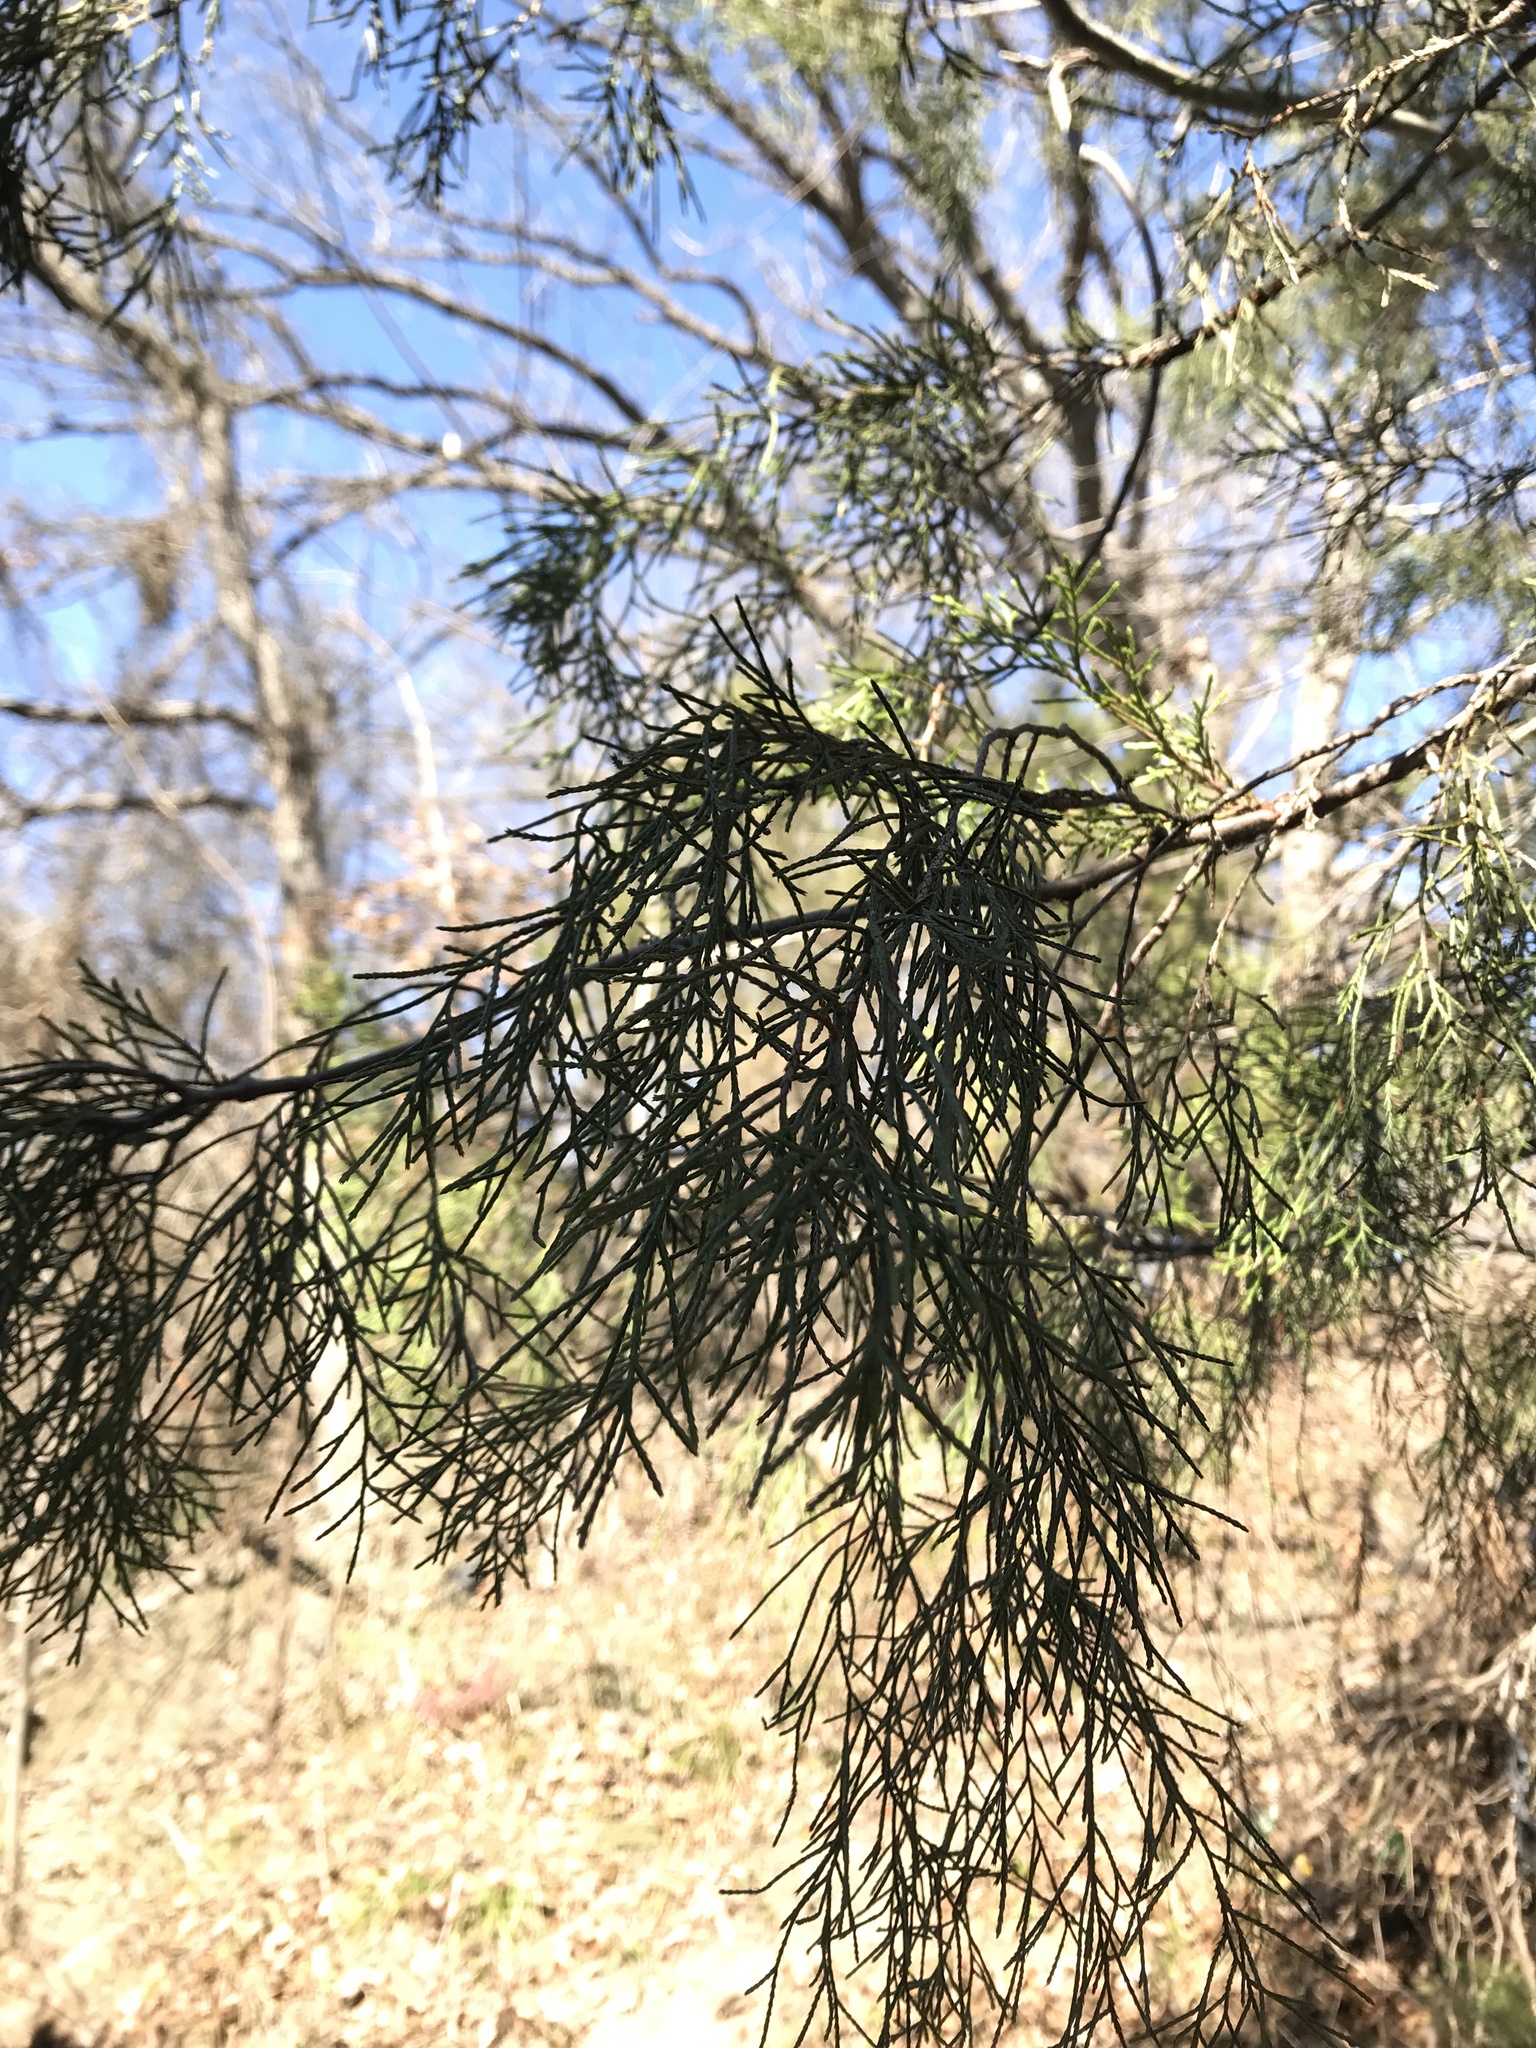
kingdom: Plantae
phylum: Tracheophyta
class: Pinopsida
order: Pinales
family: Cupressaceae
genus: Juniperus
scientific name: Juniperus virginiana
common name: Red juniper
